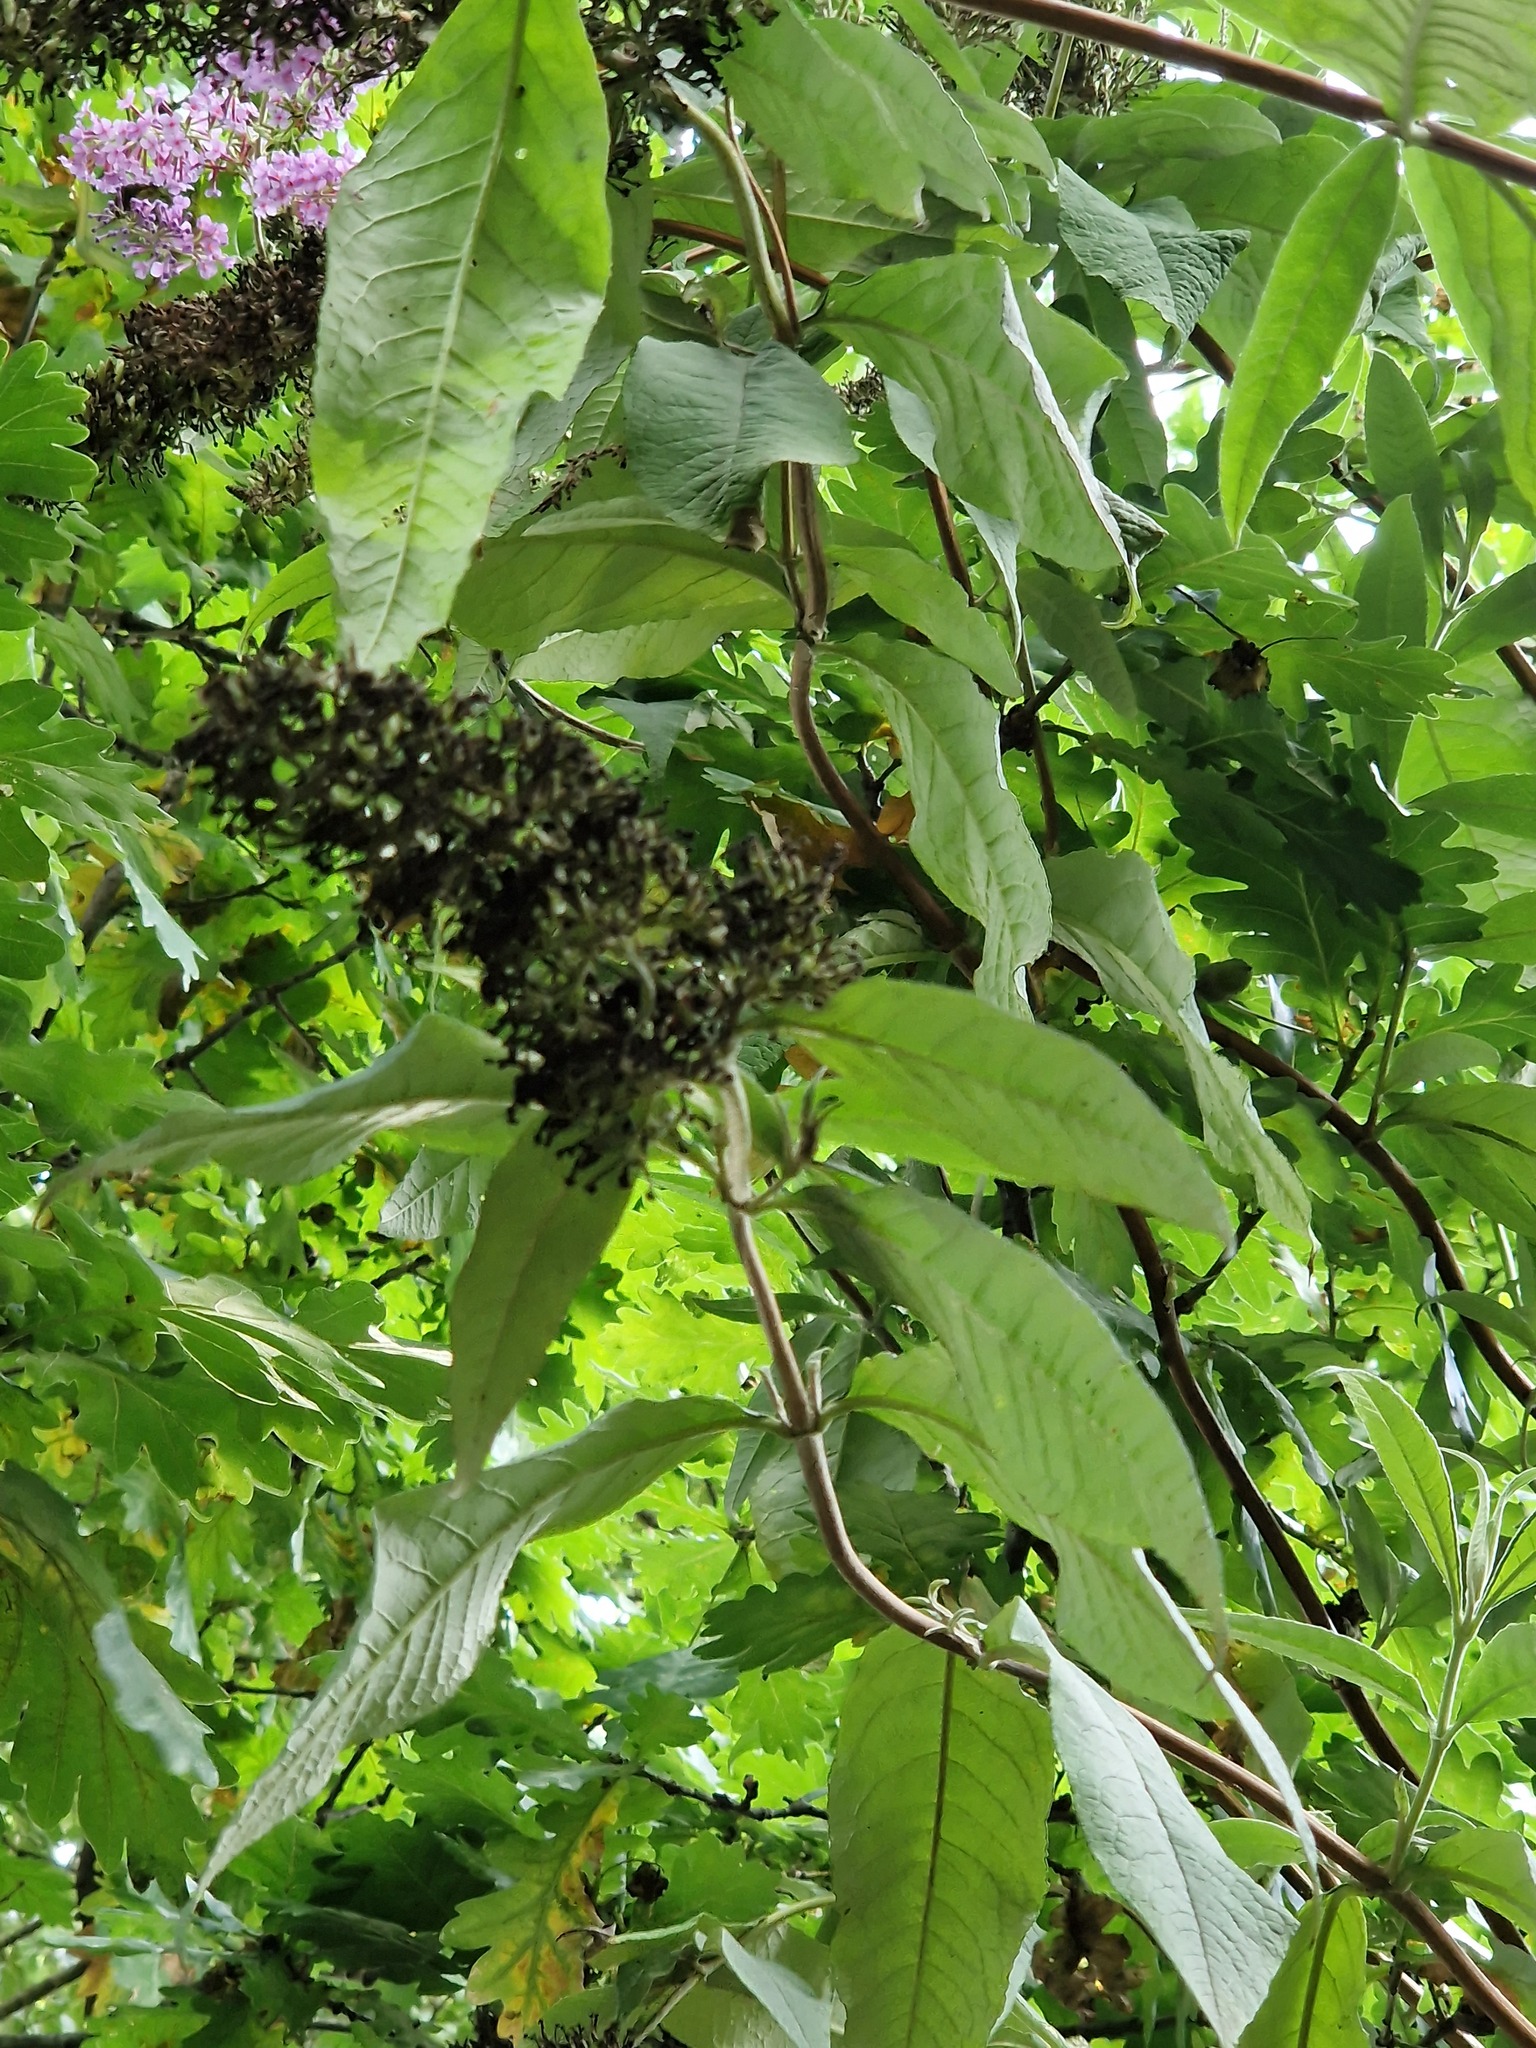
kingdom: Plantae
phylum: Tracheophyta
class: Magnoliopsida
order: Lamiales
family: Scrophulariaceae
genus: Buddleja
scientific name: Buddleja davidii
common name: Butterfly-bush
